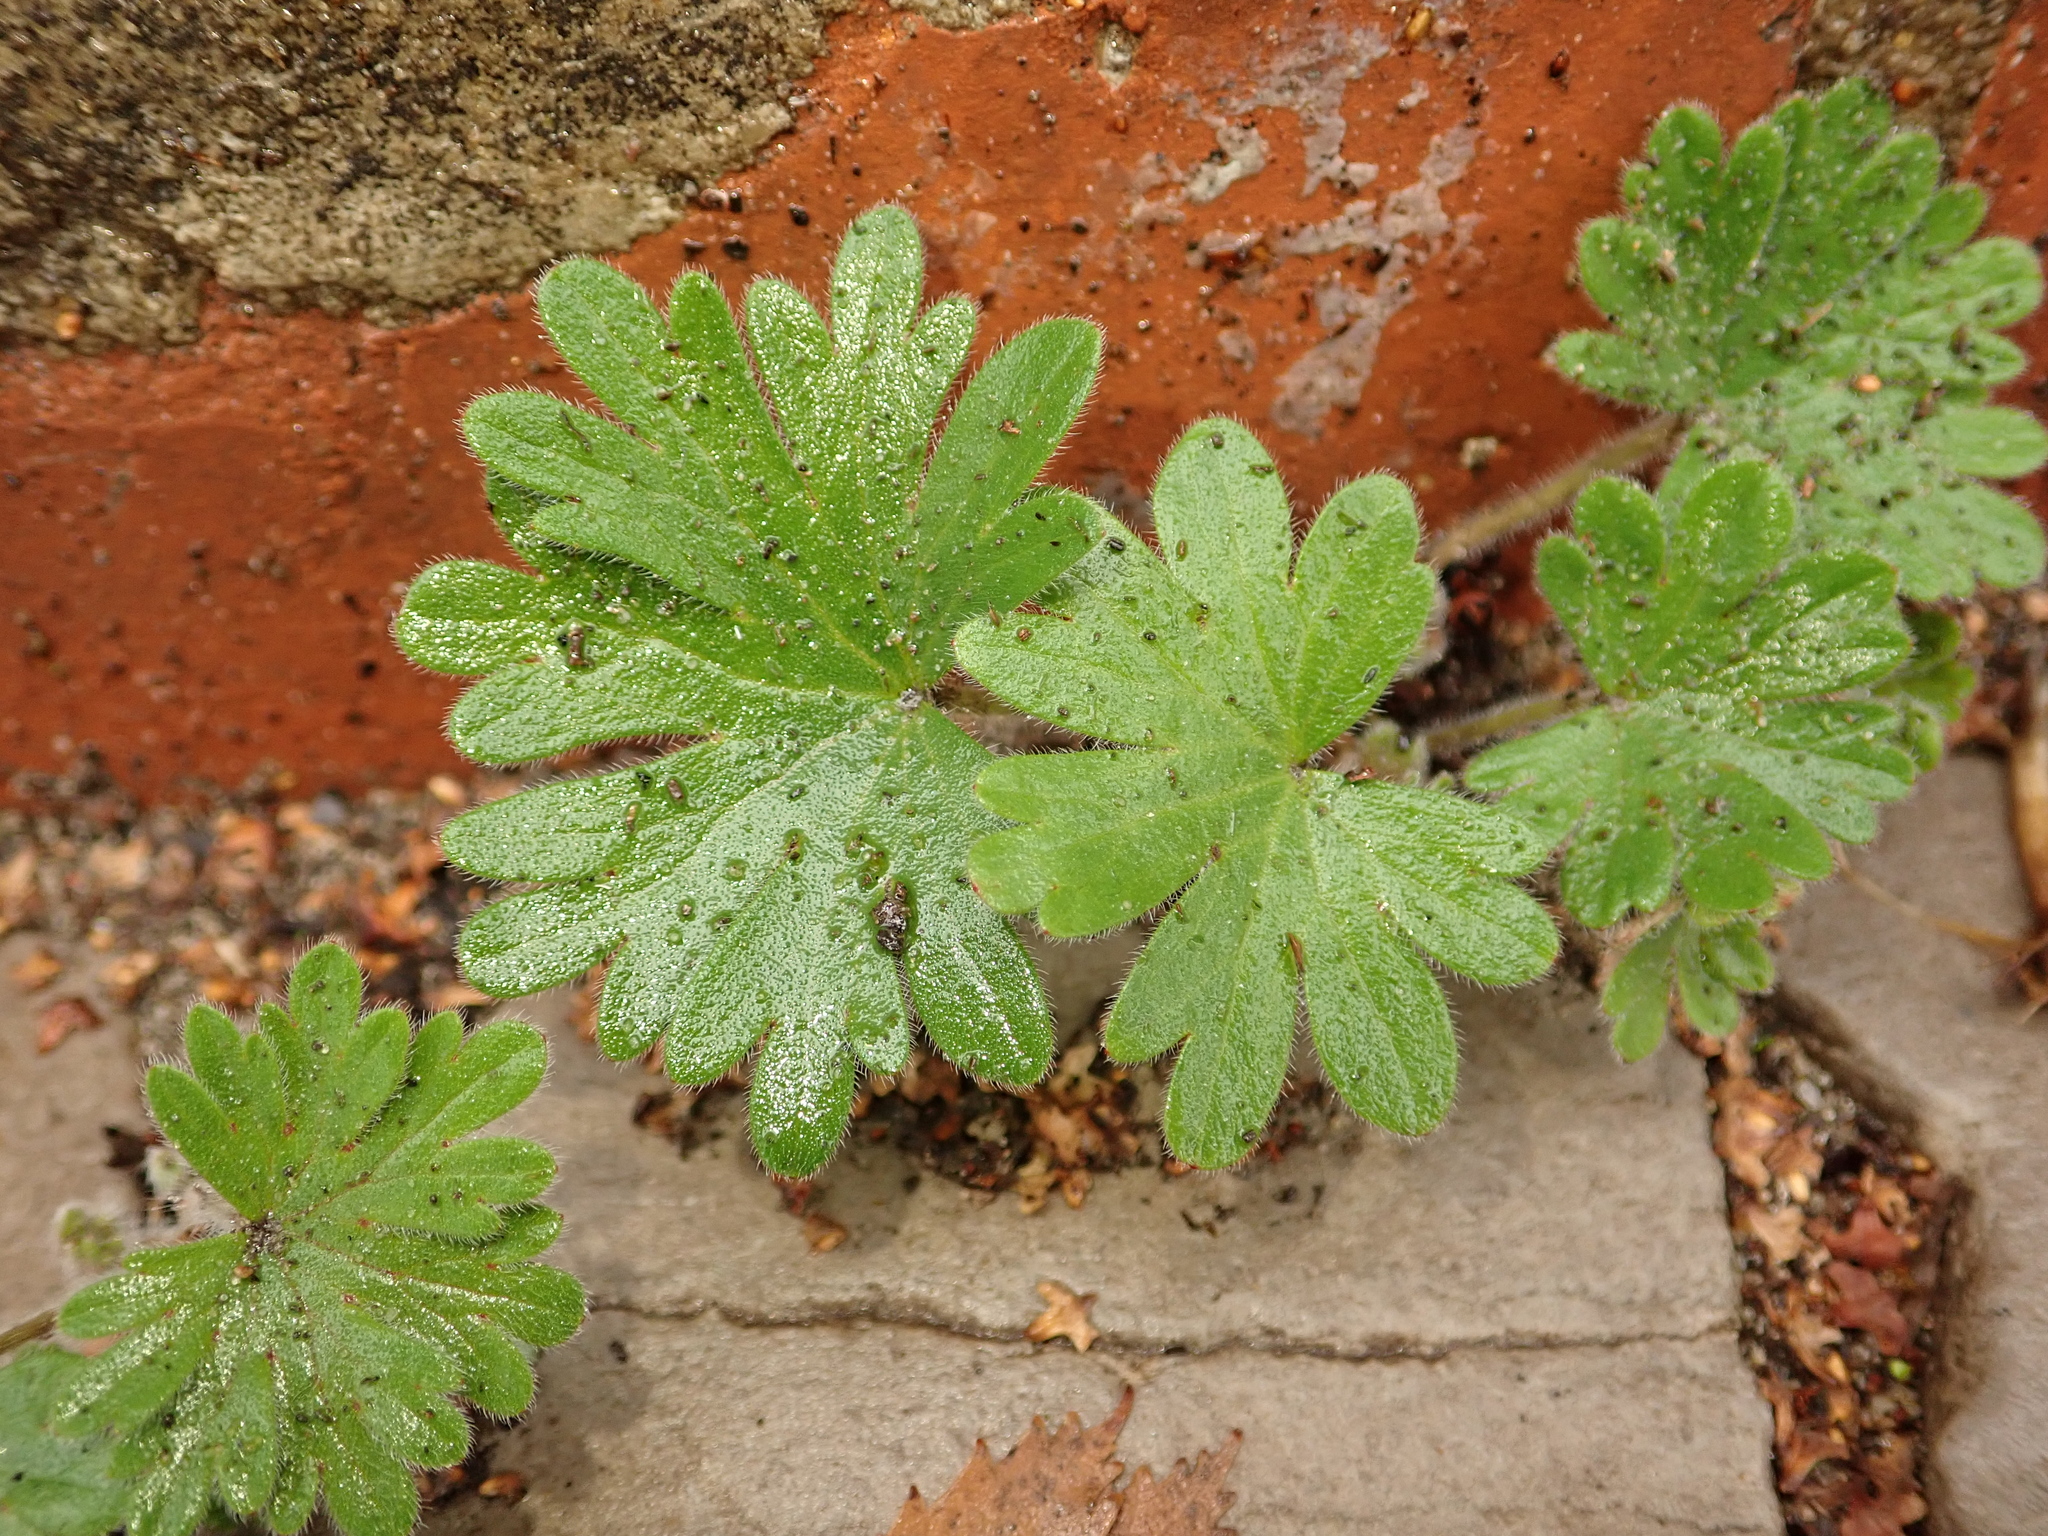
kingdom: Plantae
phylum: Tracheophyta
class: Magnoliopsida
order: Geraniales
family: Geraniaceae
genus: Geranium
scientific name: Geranium pusillum
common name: Small geranium
